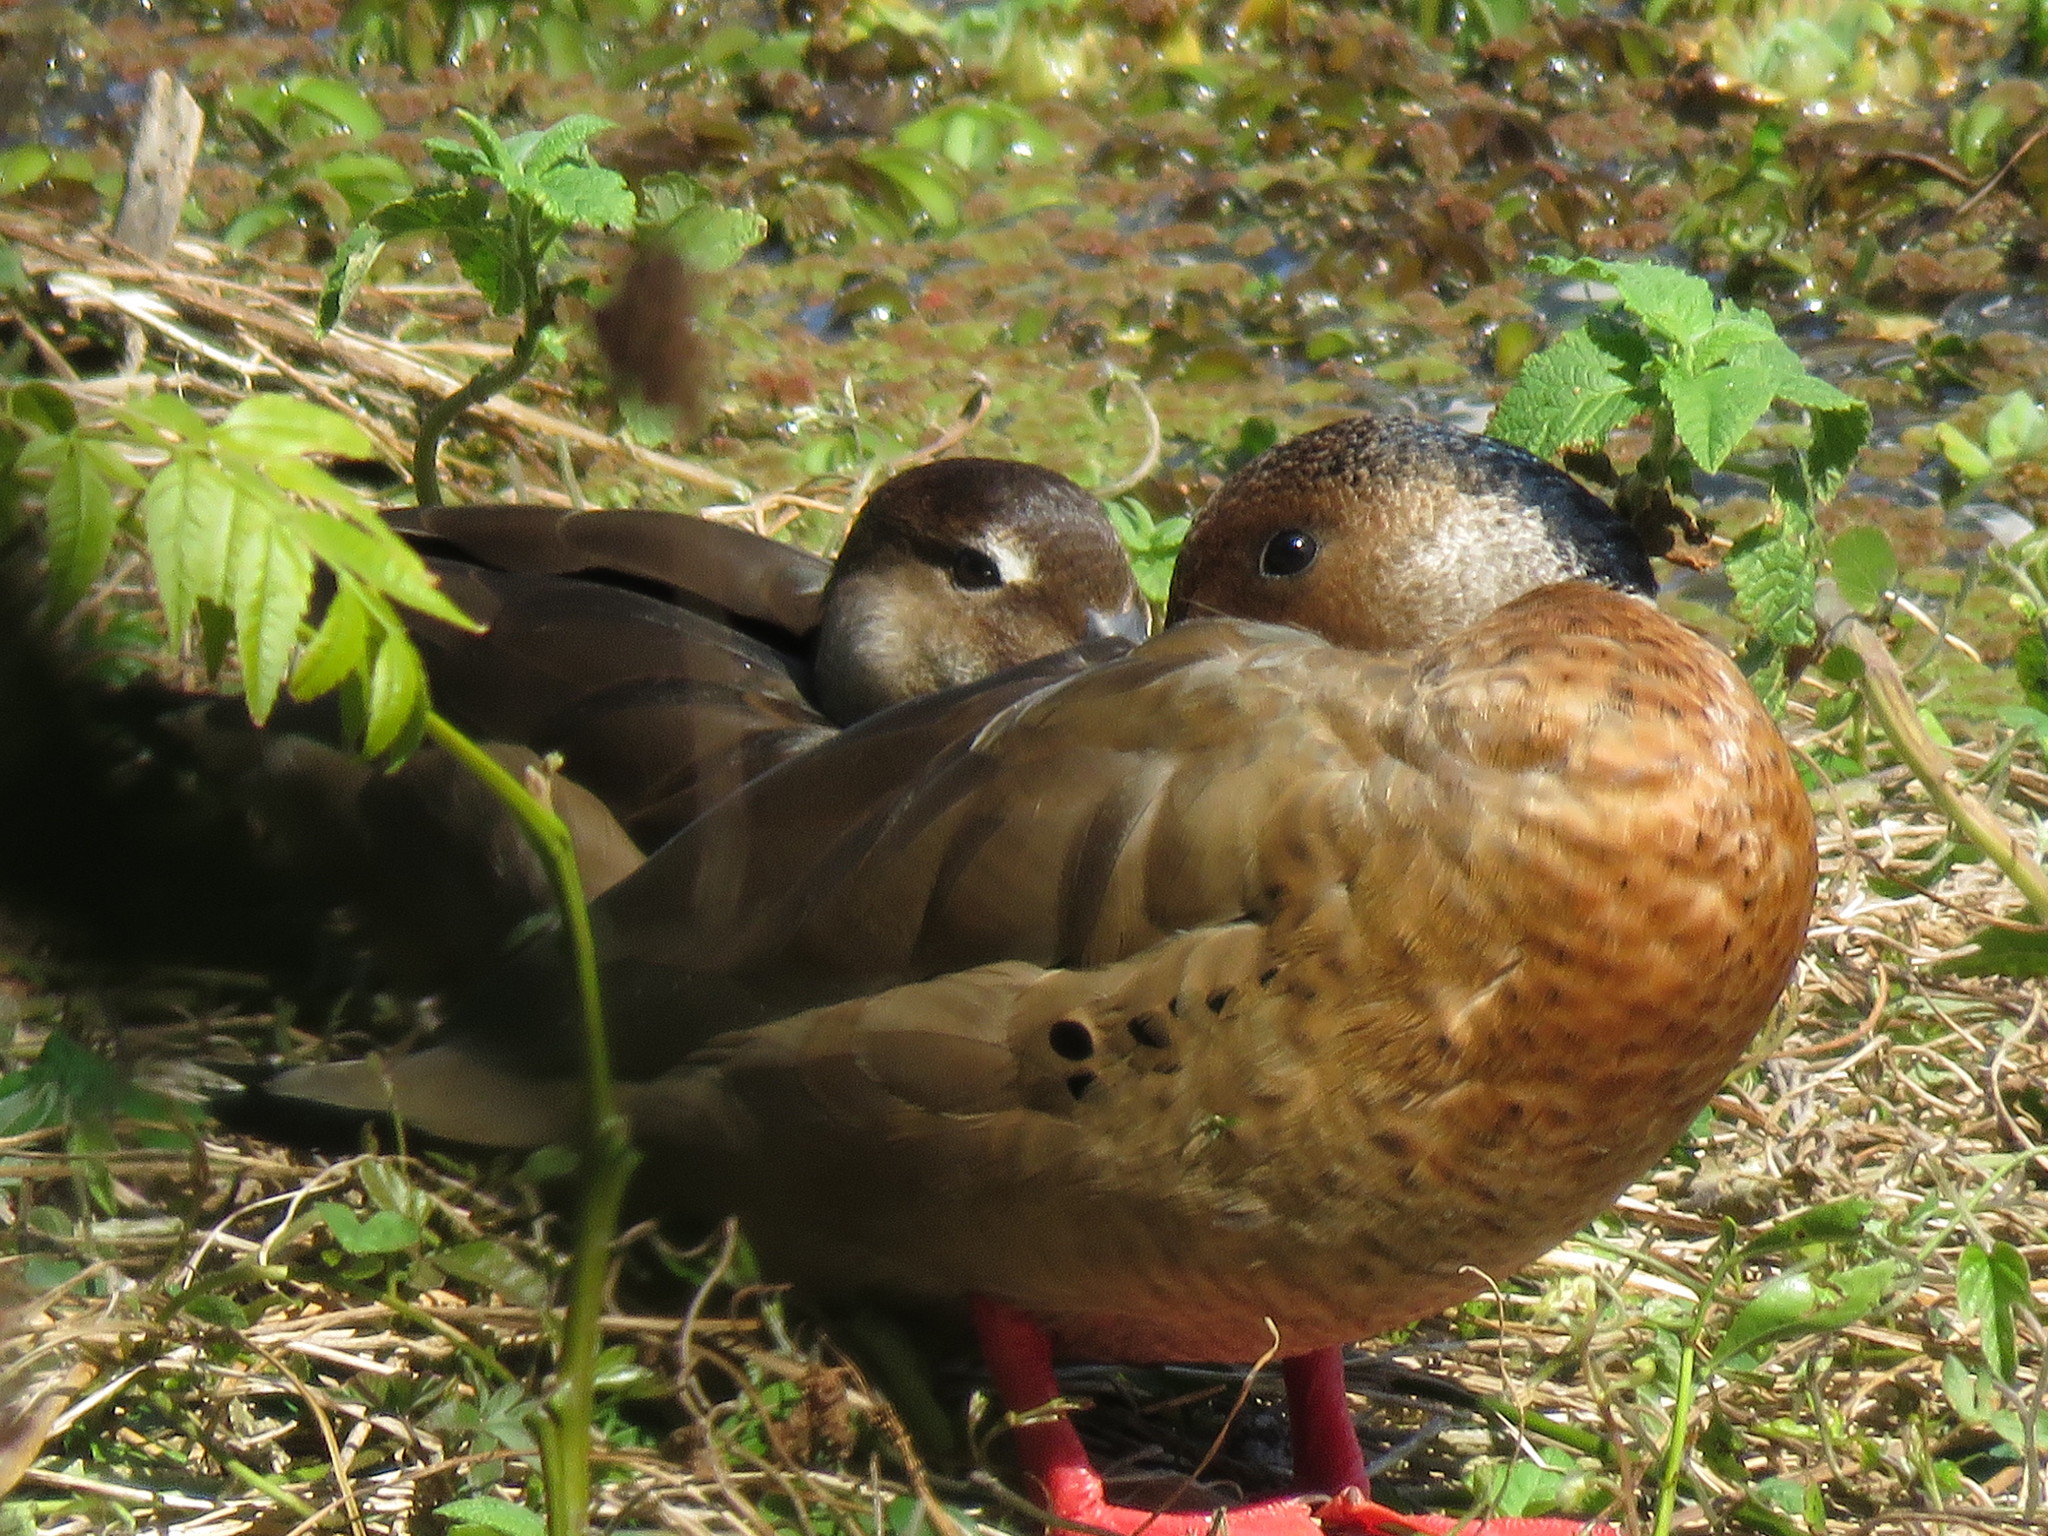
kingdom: Animalia
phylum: Chordata
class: Aves
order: Anseriformes
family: Anatidae
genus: Amazonetta
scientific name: Amazonetta brasiliensis
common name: Brazilian teal
